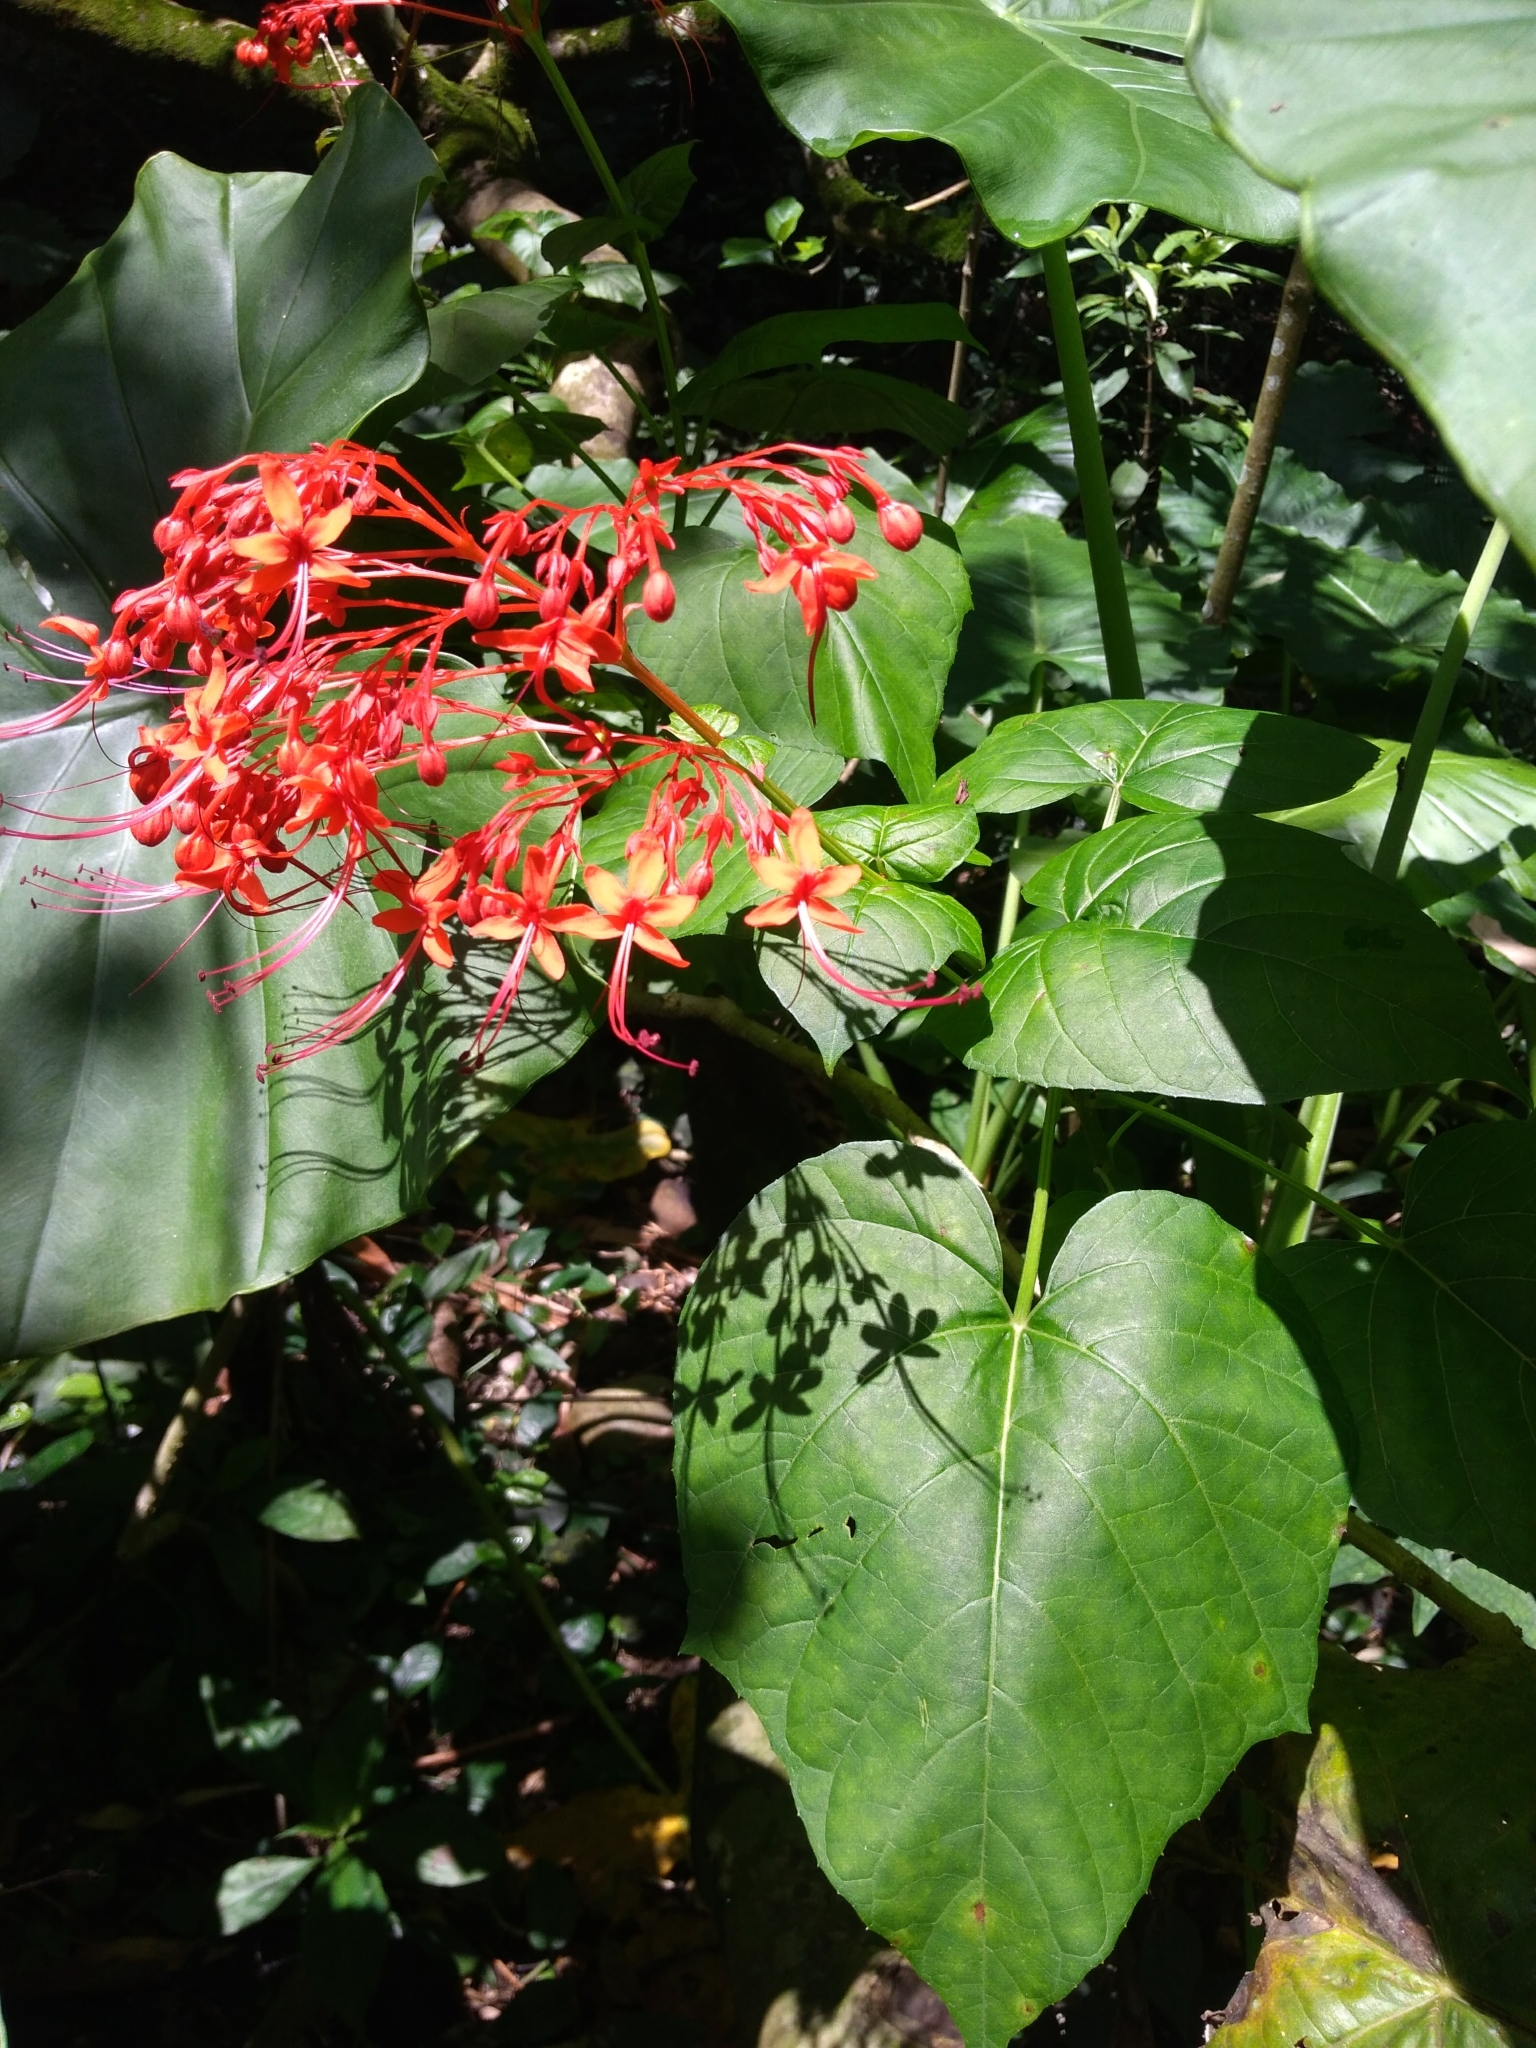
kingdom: Plantae
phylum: Tracheophyta
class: Magnoliopsida
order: Lamiales
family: Lamiaceae
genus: Clerodendrum
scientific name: Clerodendrum japonicum
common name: Japanese glorybower
